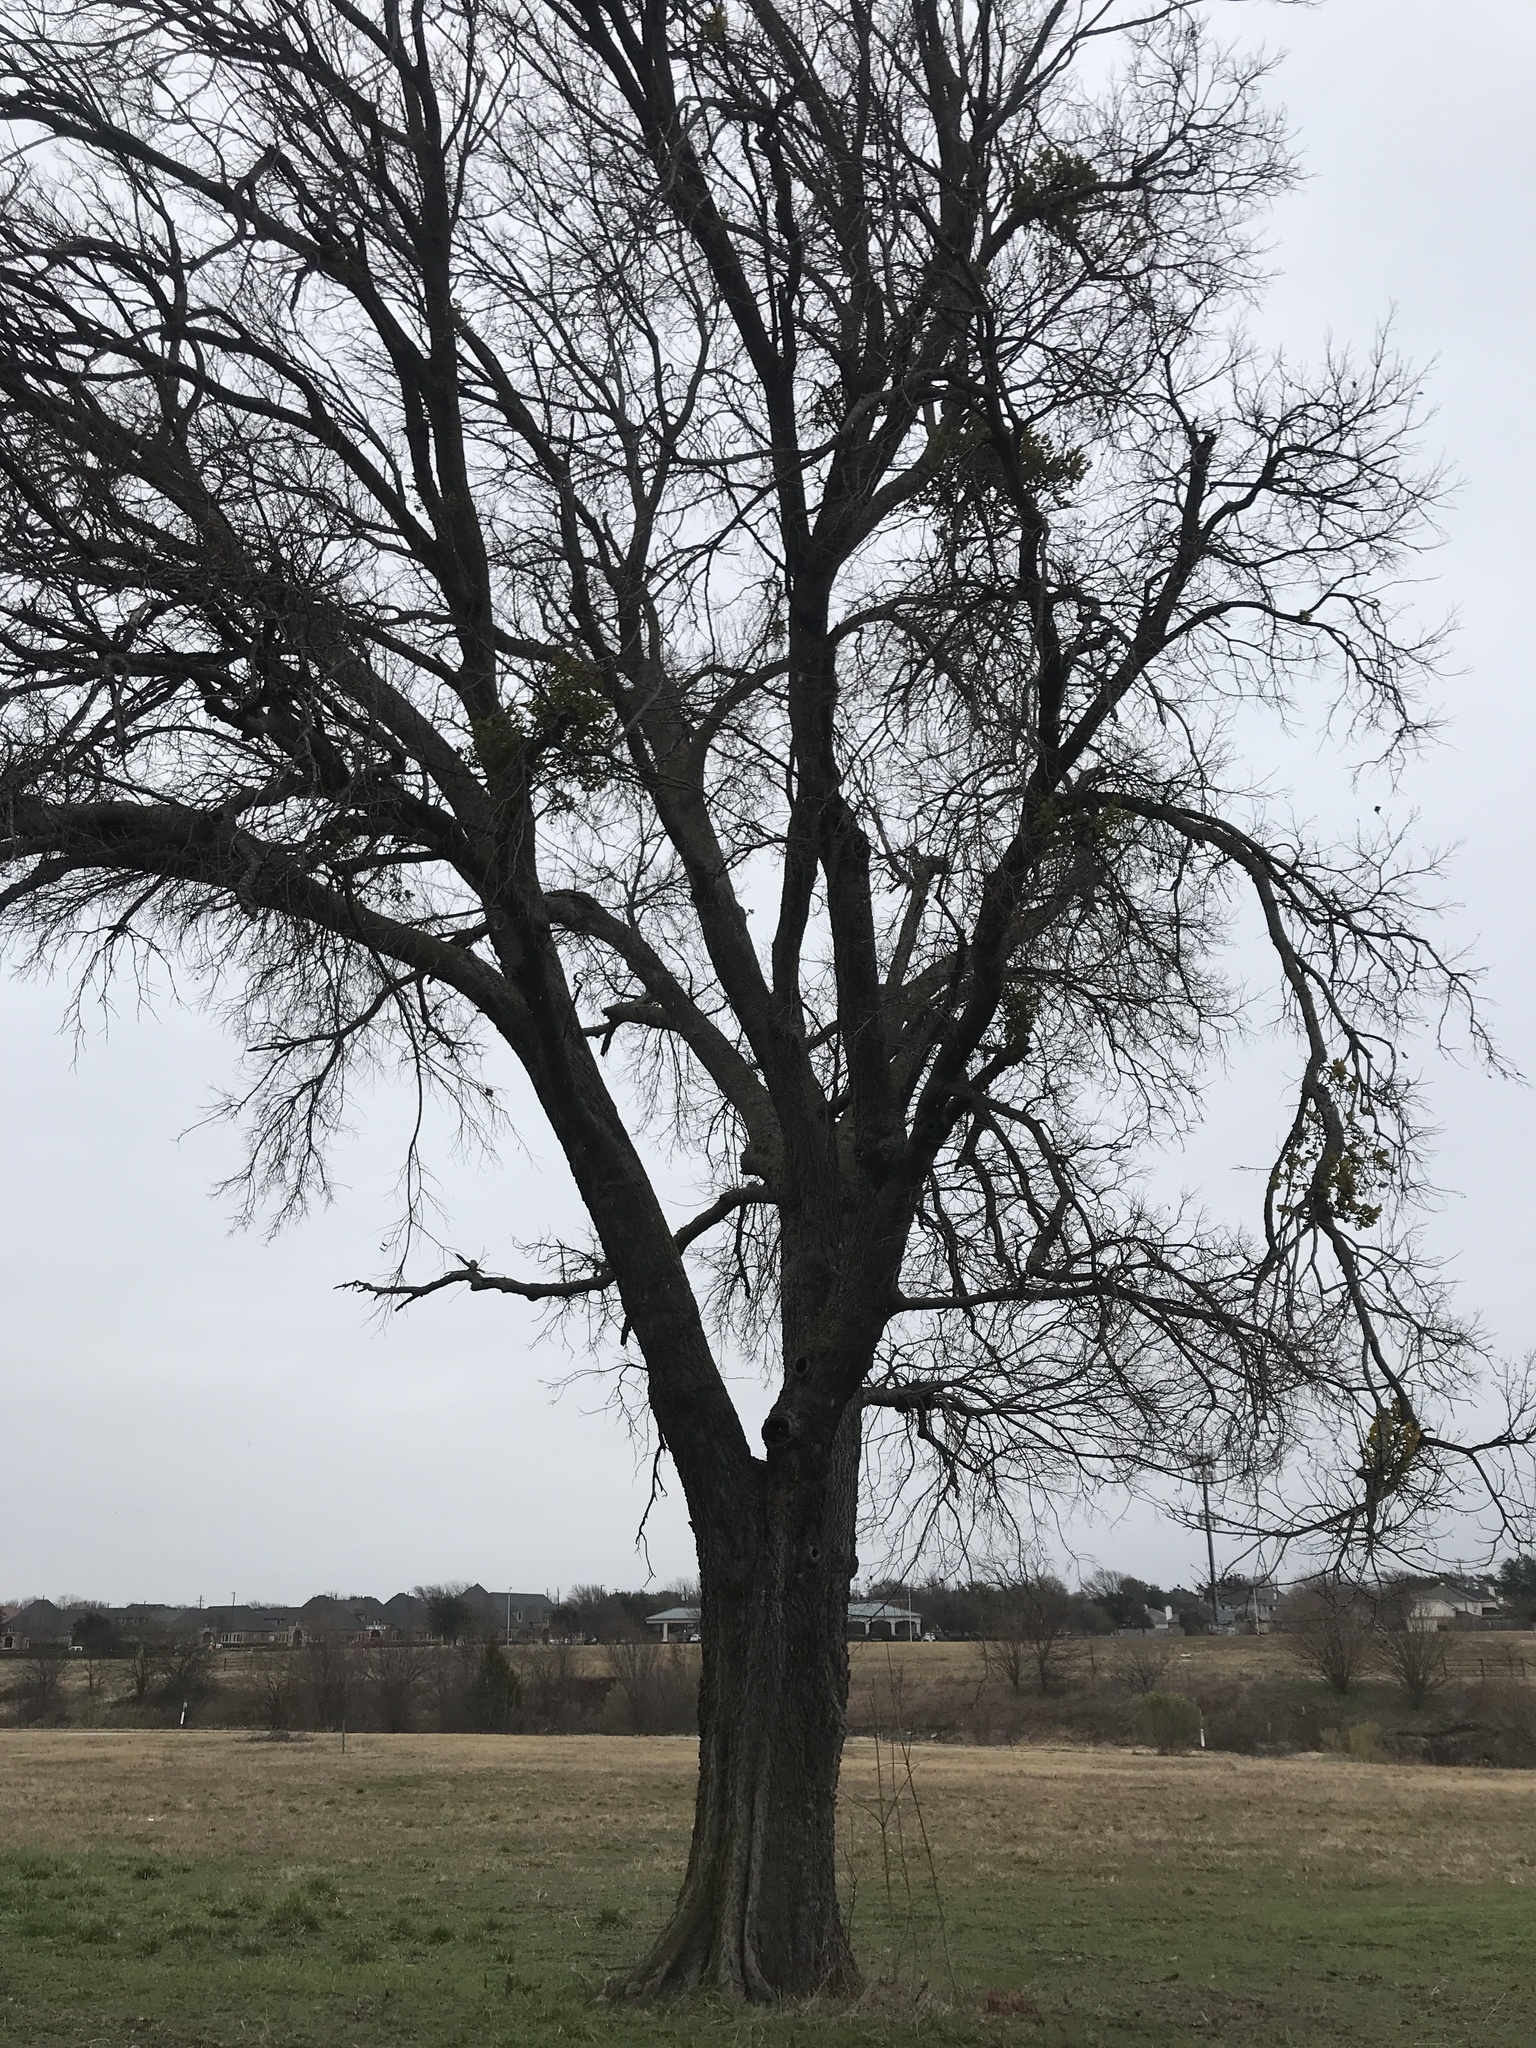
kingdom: Plantae
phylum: Tracheophyta
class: Magnoliopsida
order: Rosales
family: Cannabaceae
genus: Celtis
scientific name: Celtis laevigata
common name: Sugarberry
